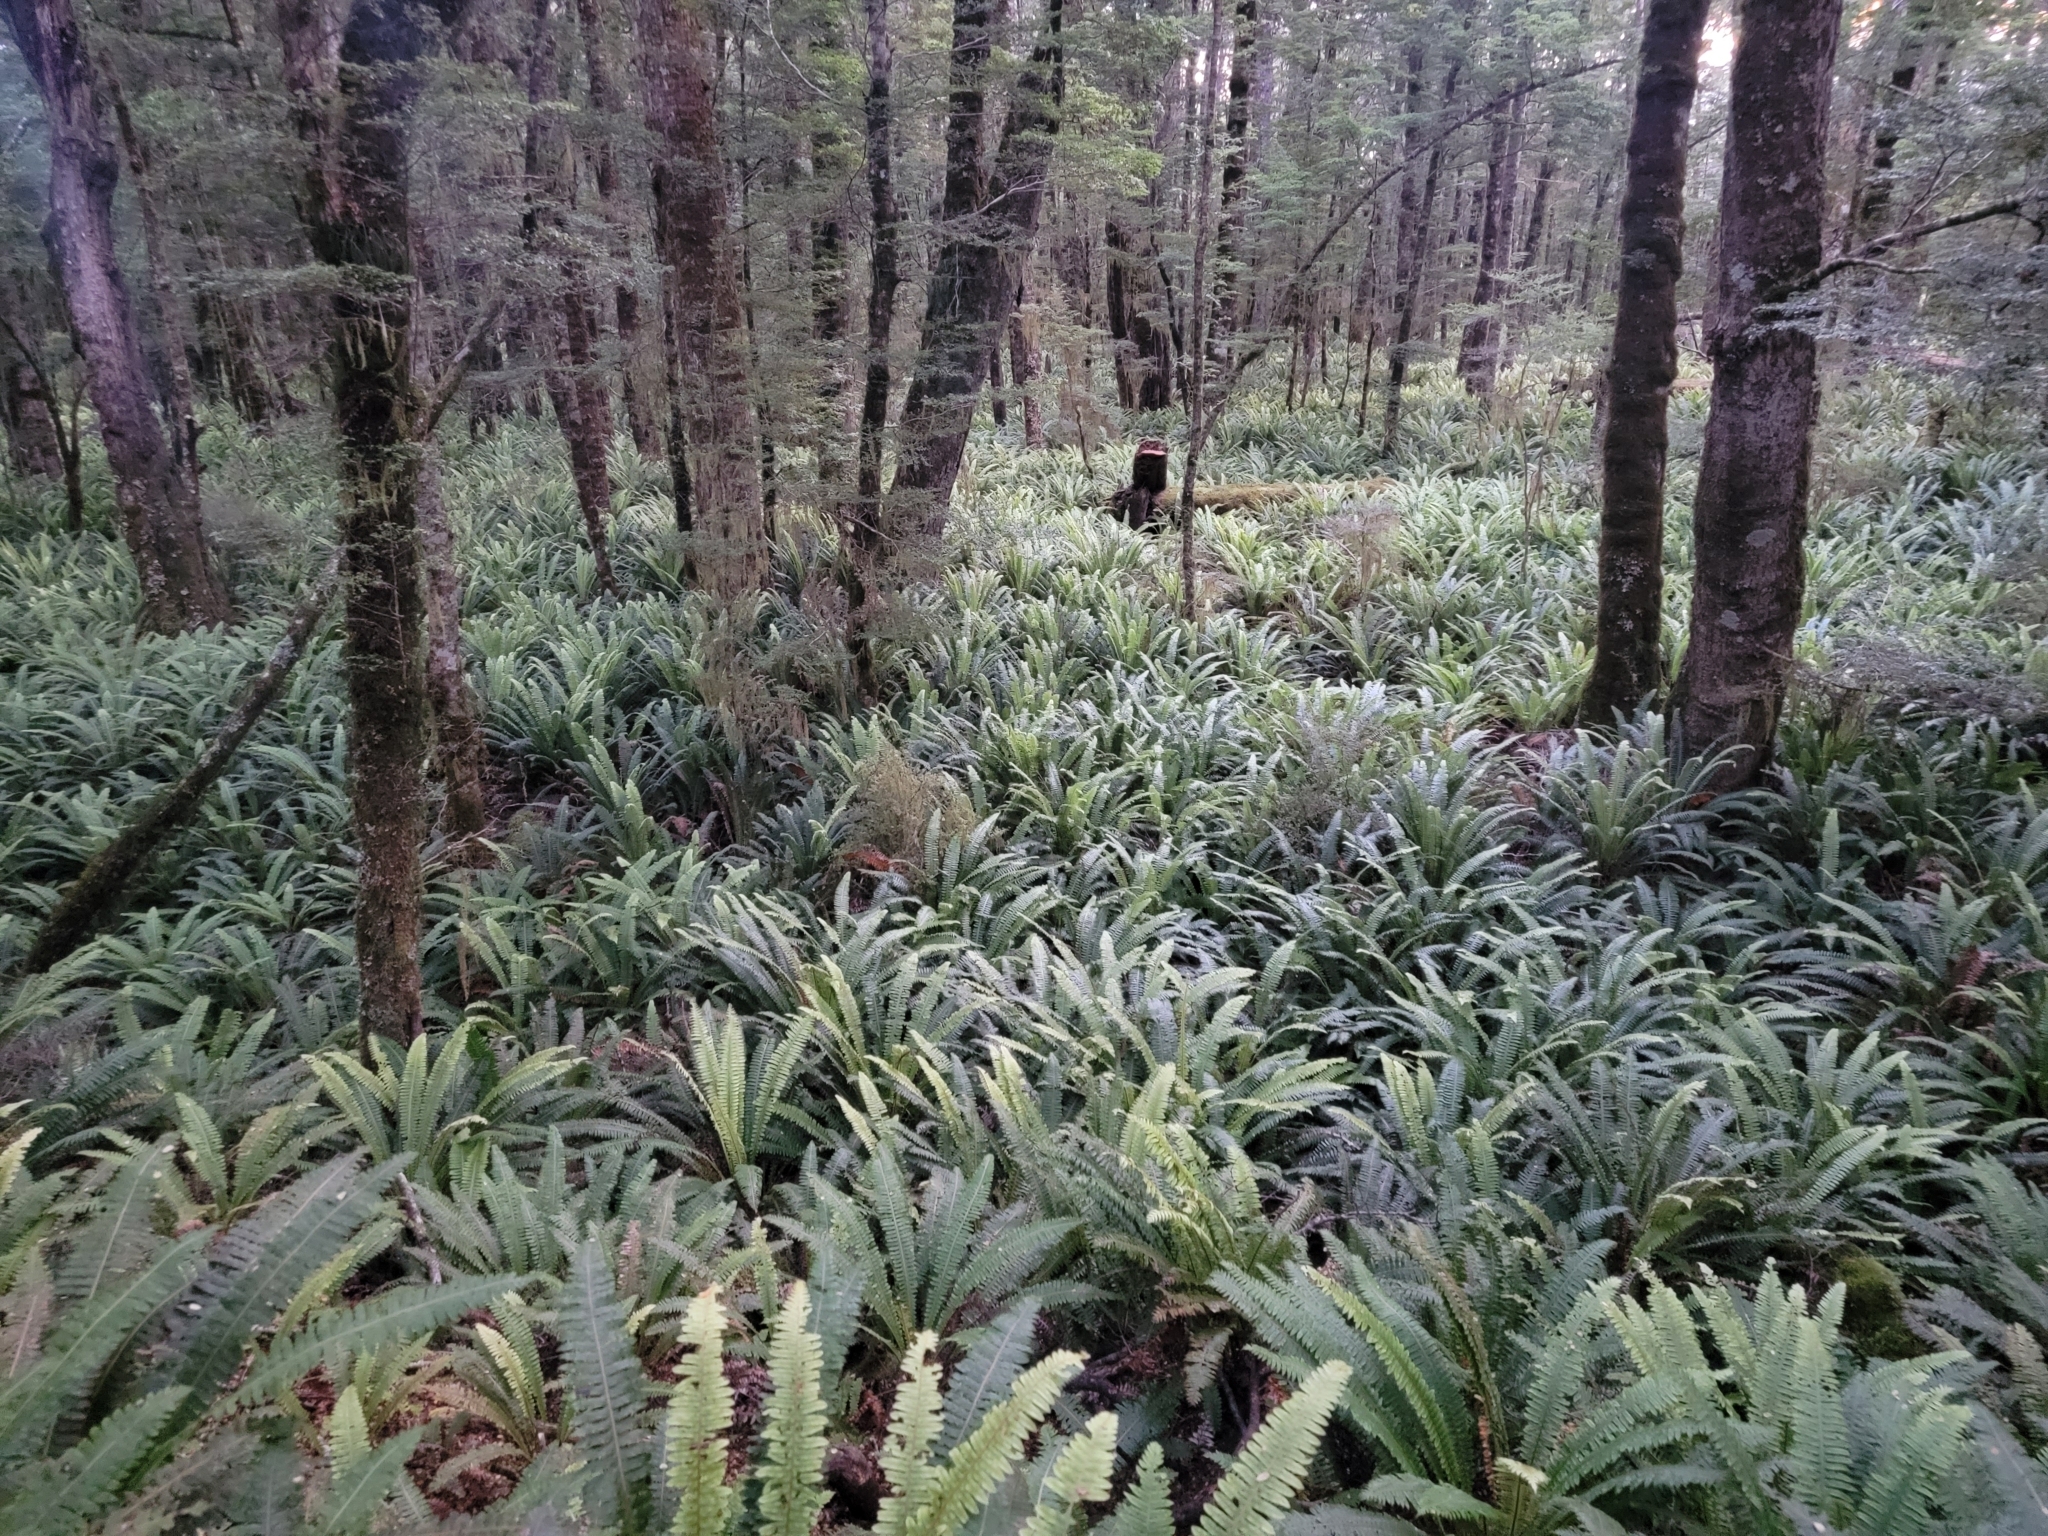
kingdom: Plantae
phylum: Tracheophyta
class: Polypodiopsida
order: Polypodiales
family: Blechnaceae
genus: Lomaria
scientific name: Lomaria discolor
